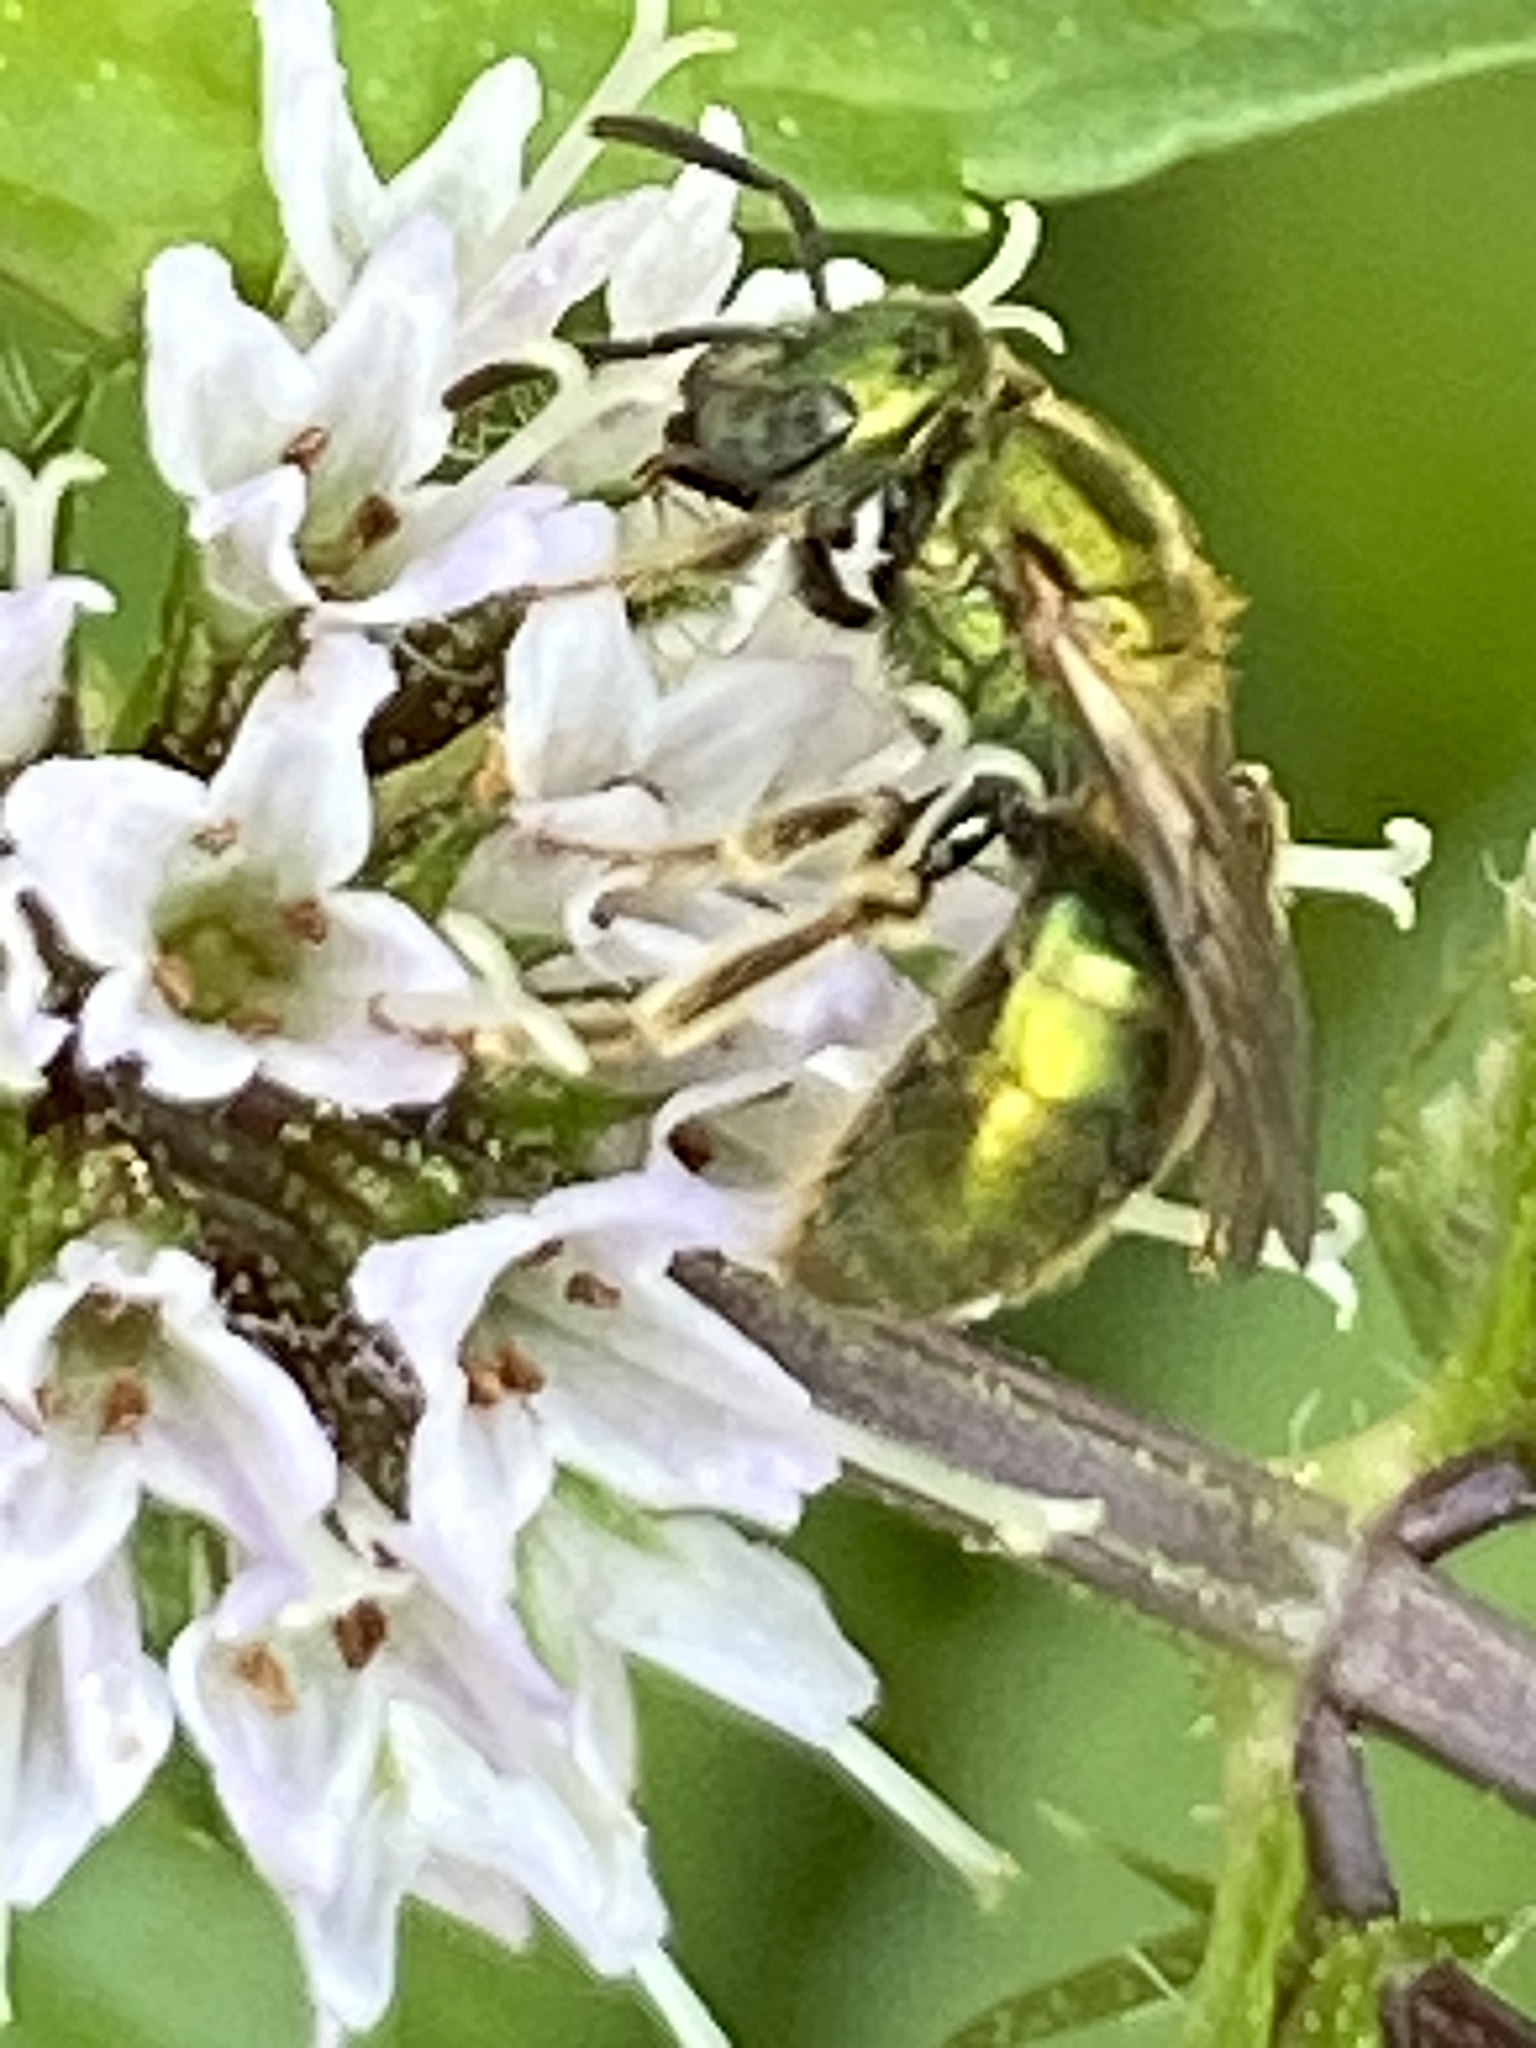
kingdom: Animalia
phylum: Arthropoda
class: Insecta
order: Hymenoptera
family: Halictidae
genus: Augochlora
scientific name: Augochlora pura
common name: Pure green sweat bee
